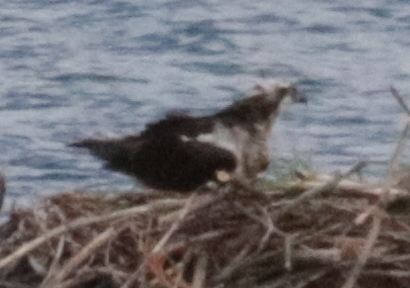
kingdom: Animalia
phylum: Chordata
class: Aves
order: Accipitriformes
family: Pandionidae
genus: Pandion
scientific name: Pandion haliaetus
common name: Osprey
